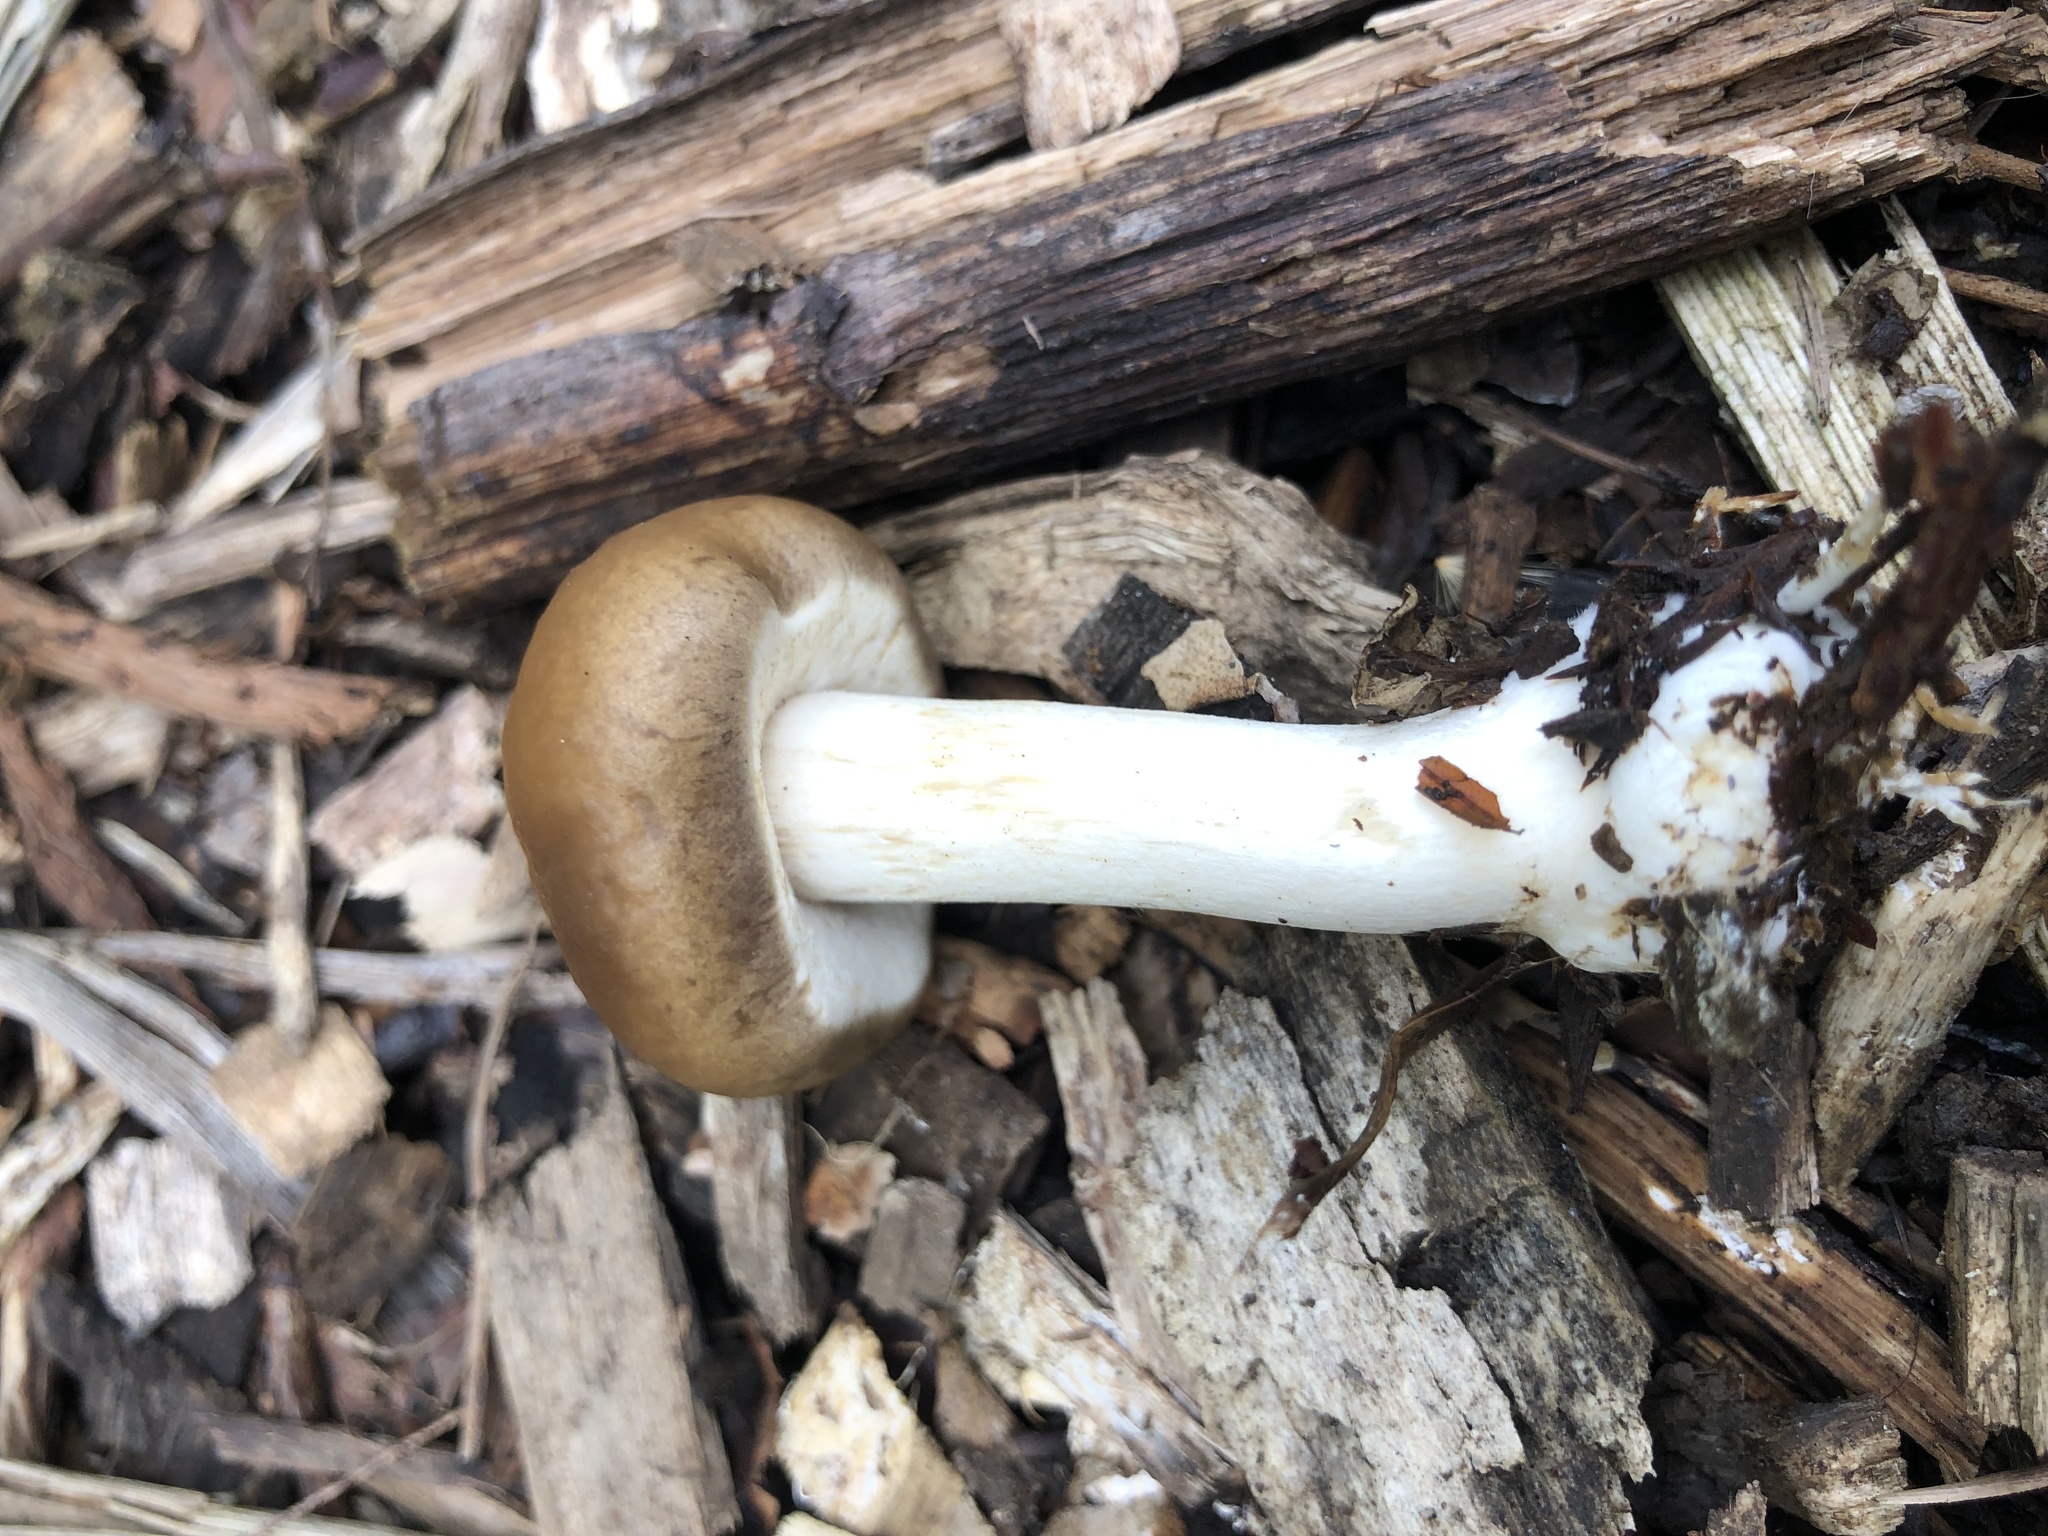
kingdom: Fungi
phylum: Basidiomycota
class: Agaricomycetes
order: Agaricales
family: Strophariaceae
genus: Agrocybe
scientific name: Agrocybe praecox
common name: Spring fieldcap
